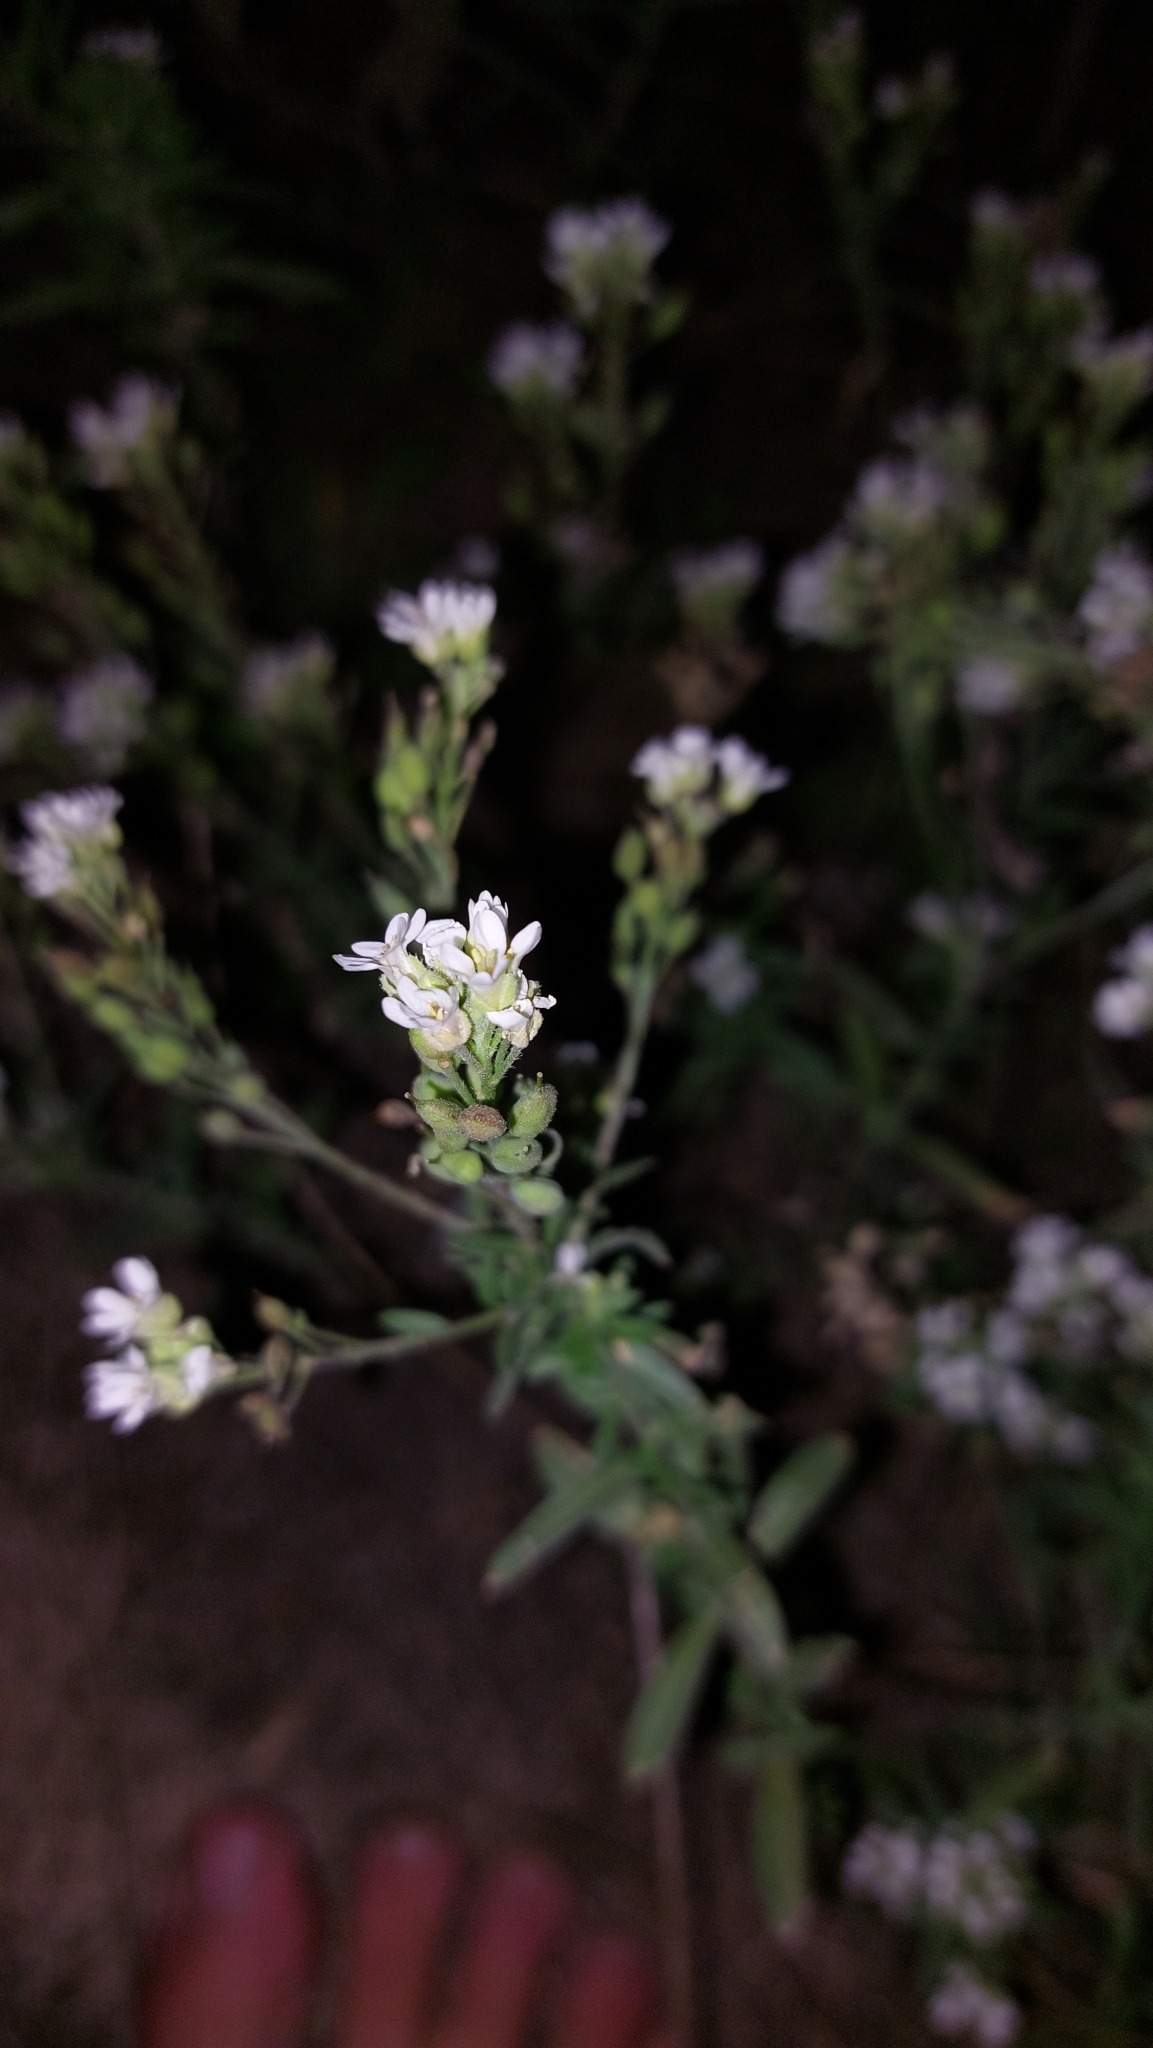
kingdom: Plantae
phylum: Tracheophyta
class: Magnoliopsida
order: Brassicales
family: Brassicaceae
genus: Berteroa
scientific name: Berteroa incana
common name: Hoary alison
